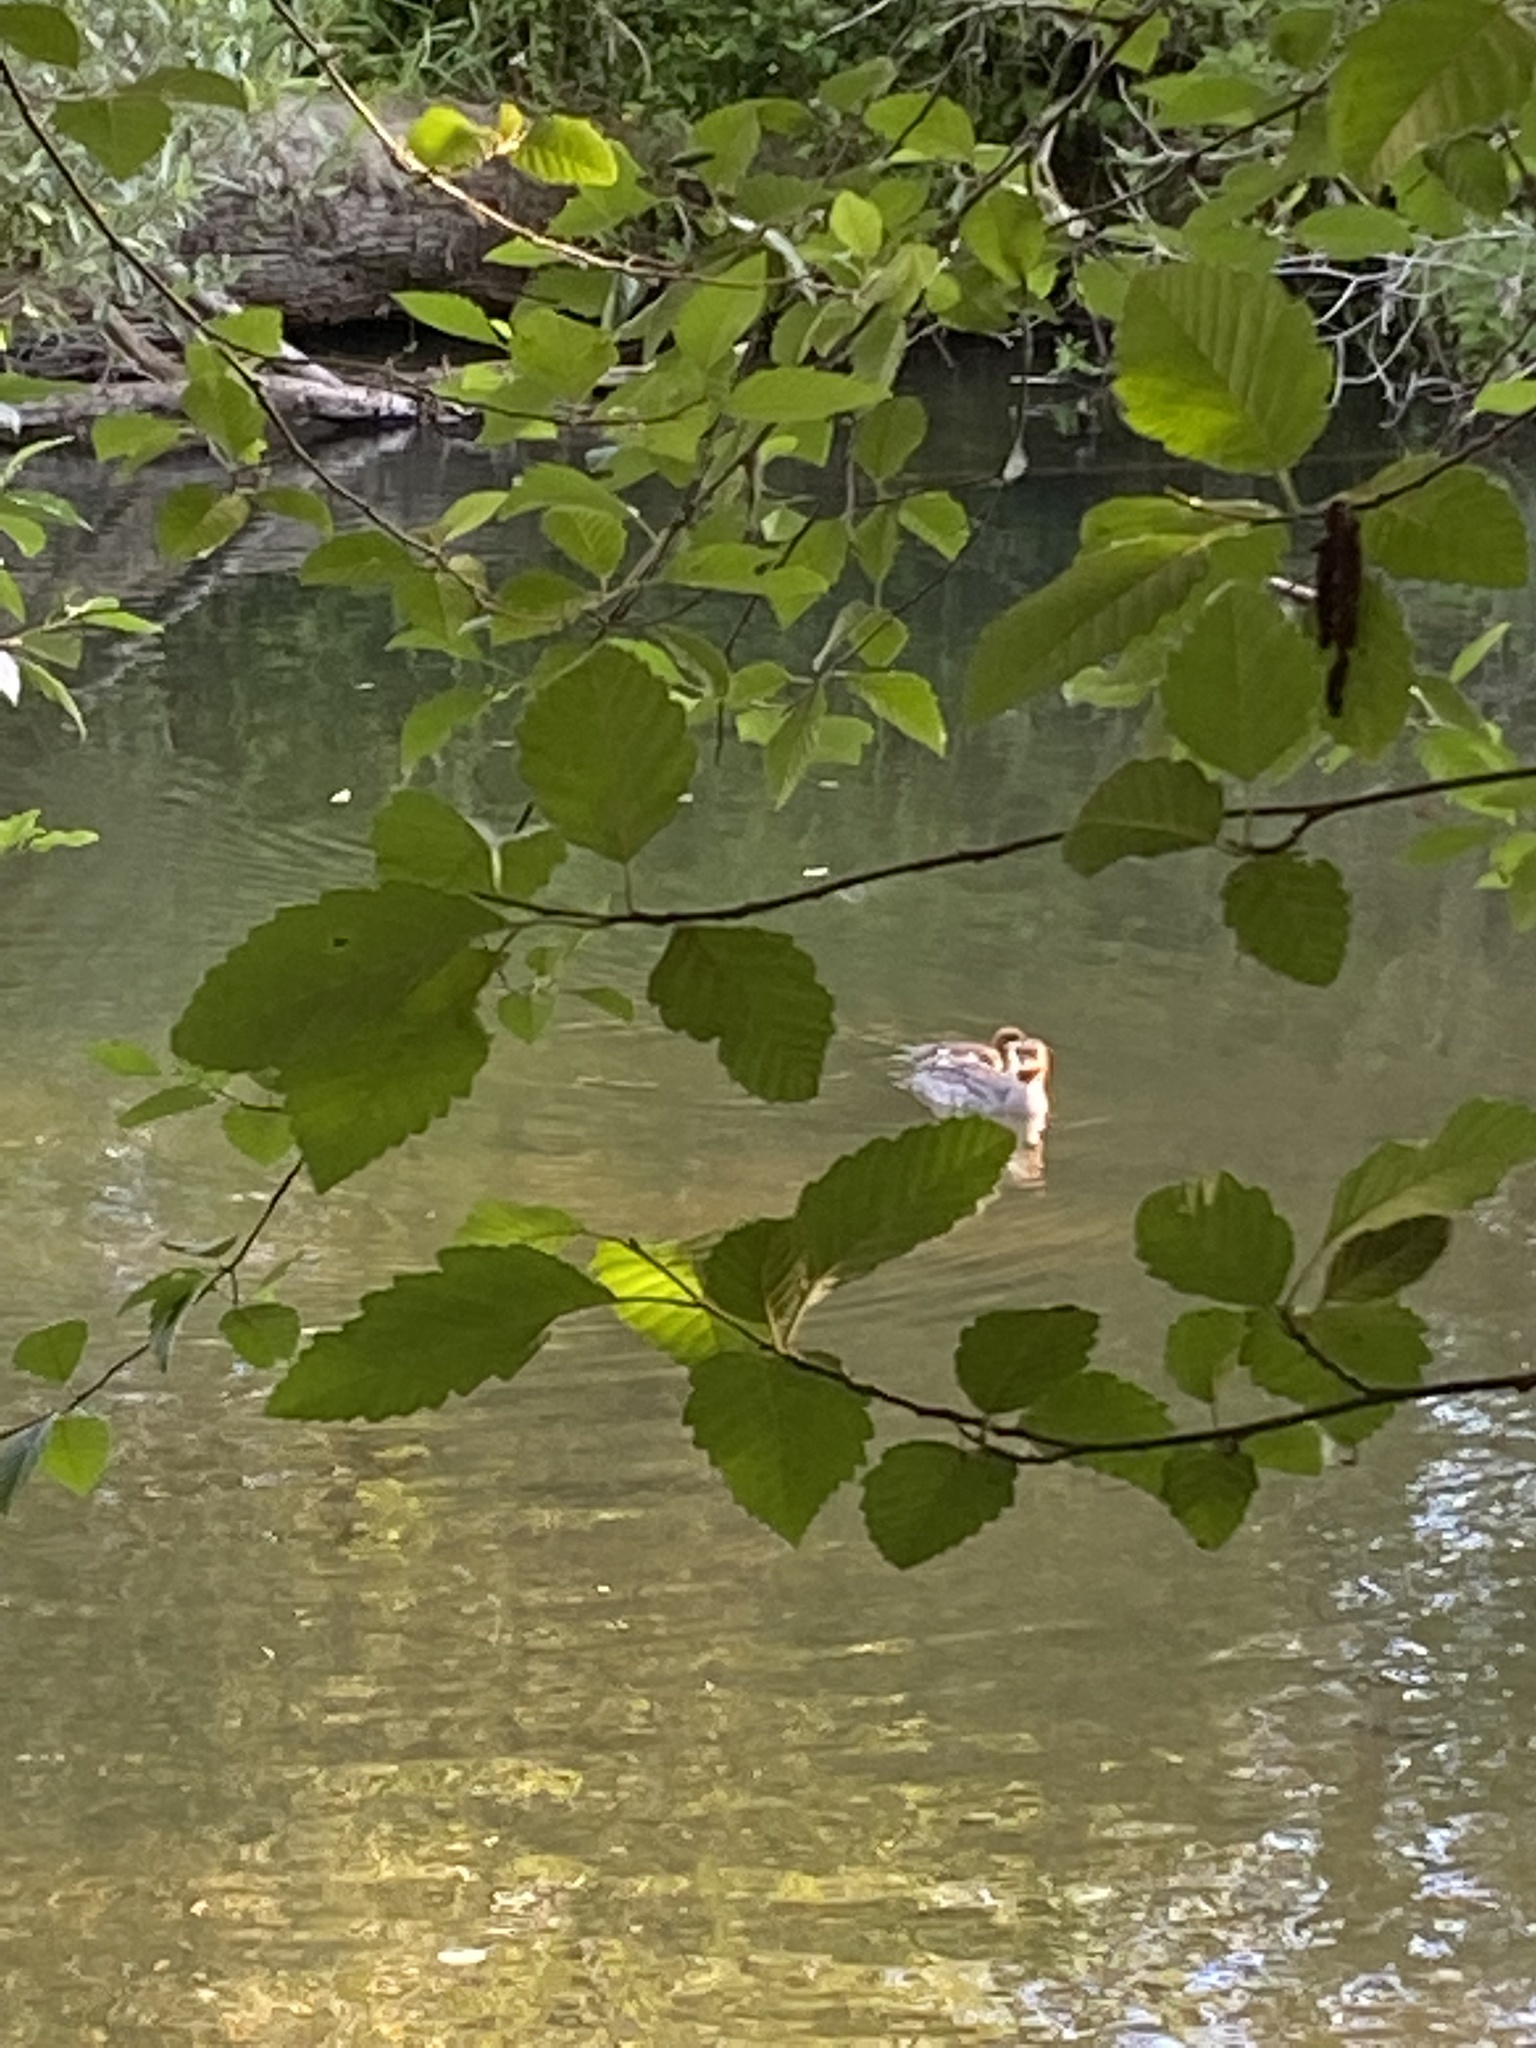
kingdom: Animalia
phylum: Chordata
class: Aves
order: Anseriformes
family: Anatidae
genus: Mergus
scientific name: Mergus merganser
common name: Common merganser
